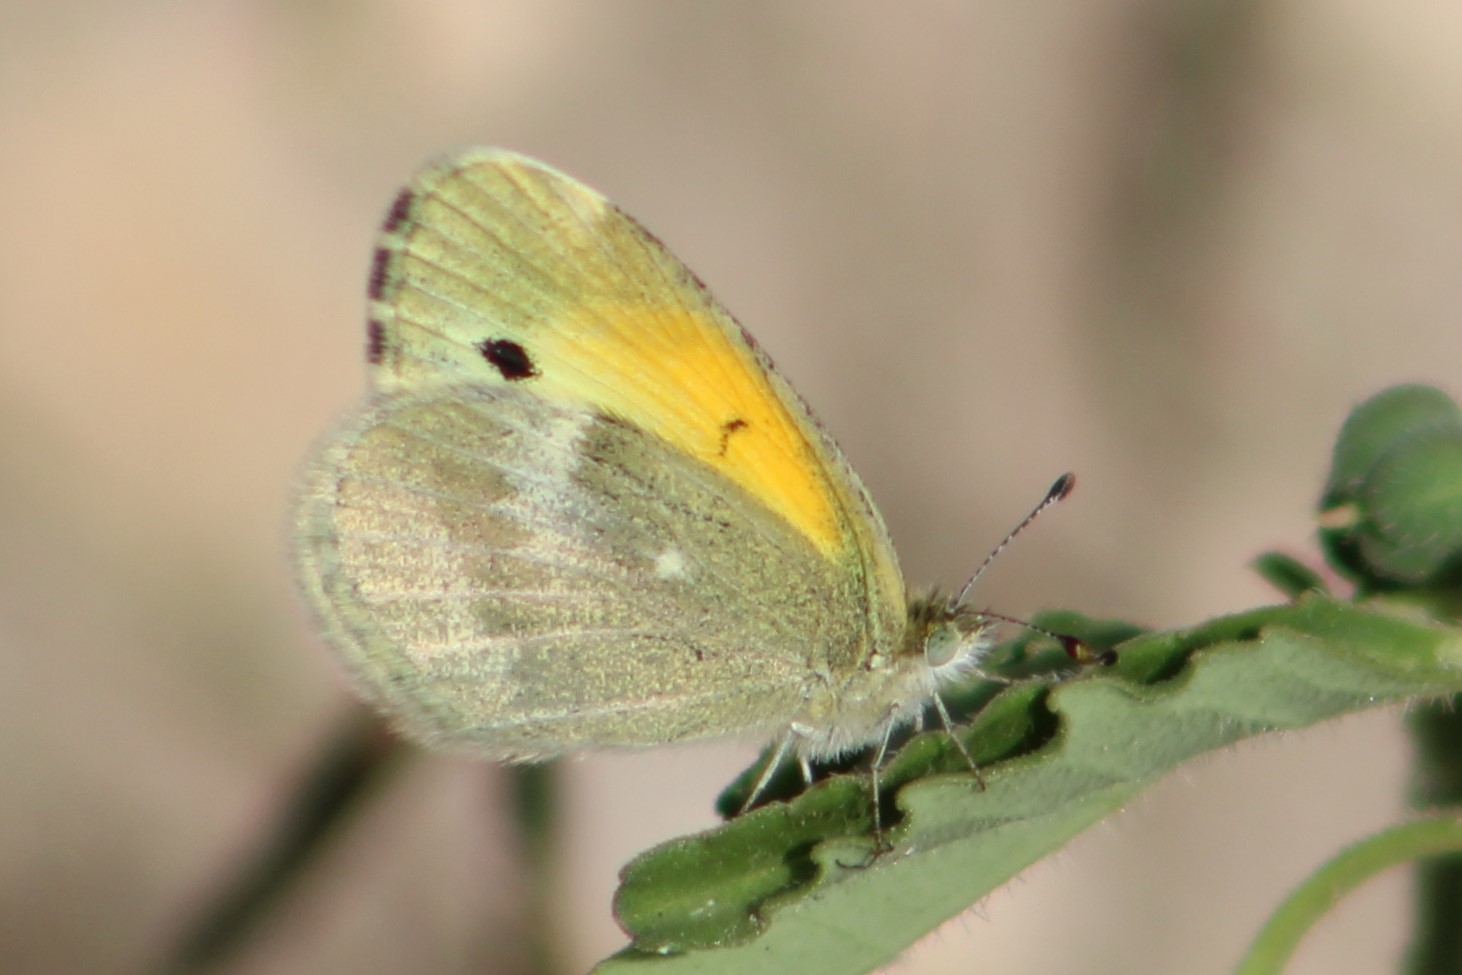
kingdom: Animalia
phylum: Arthropoda
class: Insecta
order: Lepidoptera
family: Pieridae
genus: Nathalis
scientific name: Nathalis iole
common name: Dainty sulphur
